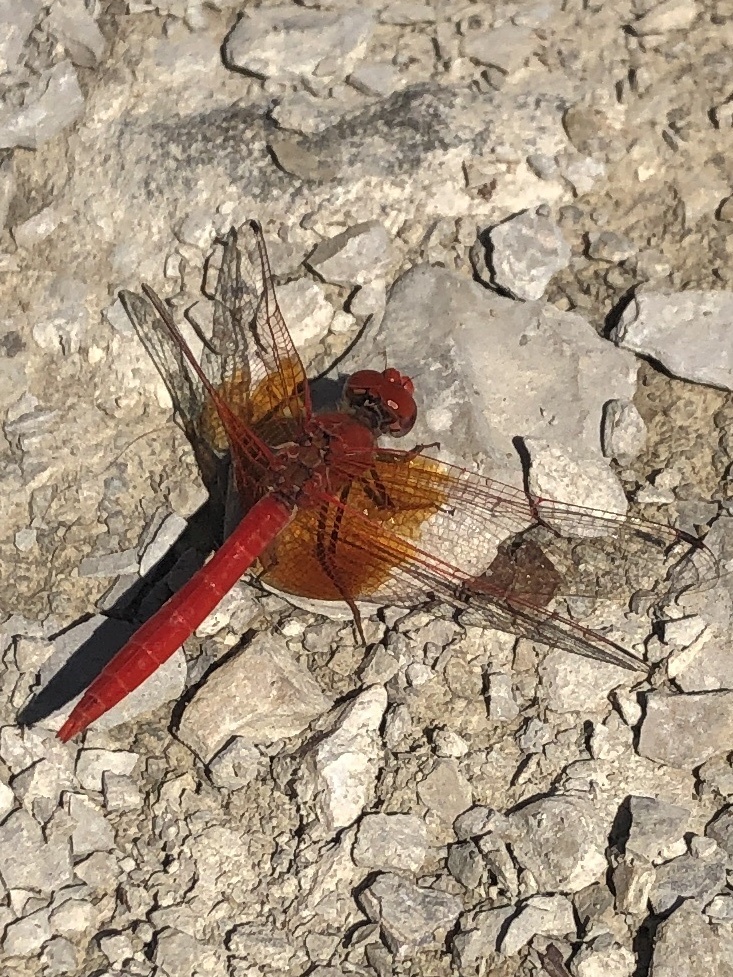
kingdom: Animalia
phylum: Arthropoda
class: Insecta
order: Odonata
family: Libellulidae
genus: Trithemis
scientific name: Trithemis kirbyi
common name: Kirby's dropwing
